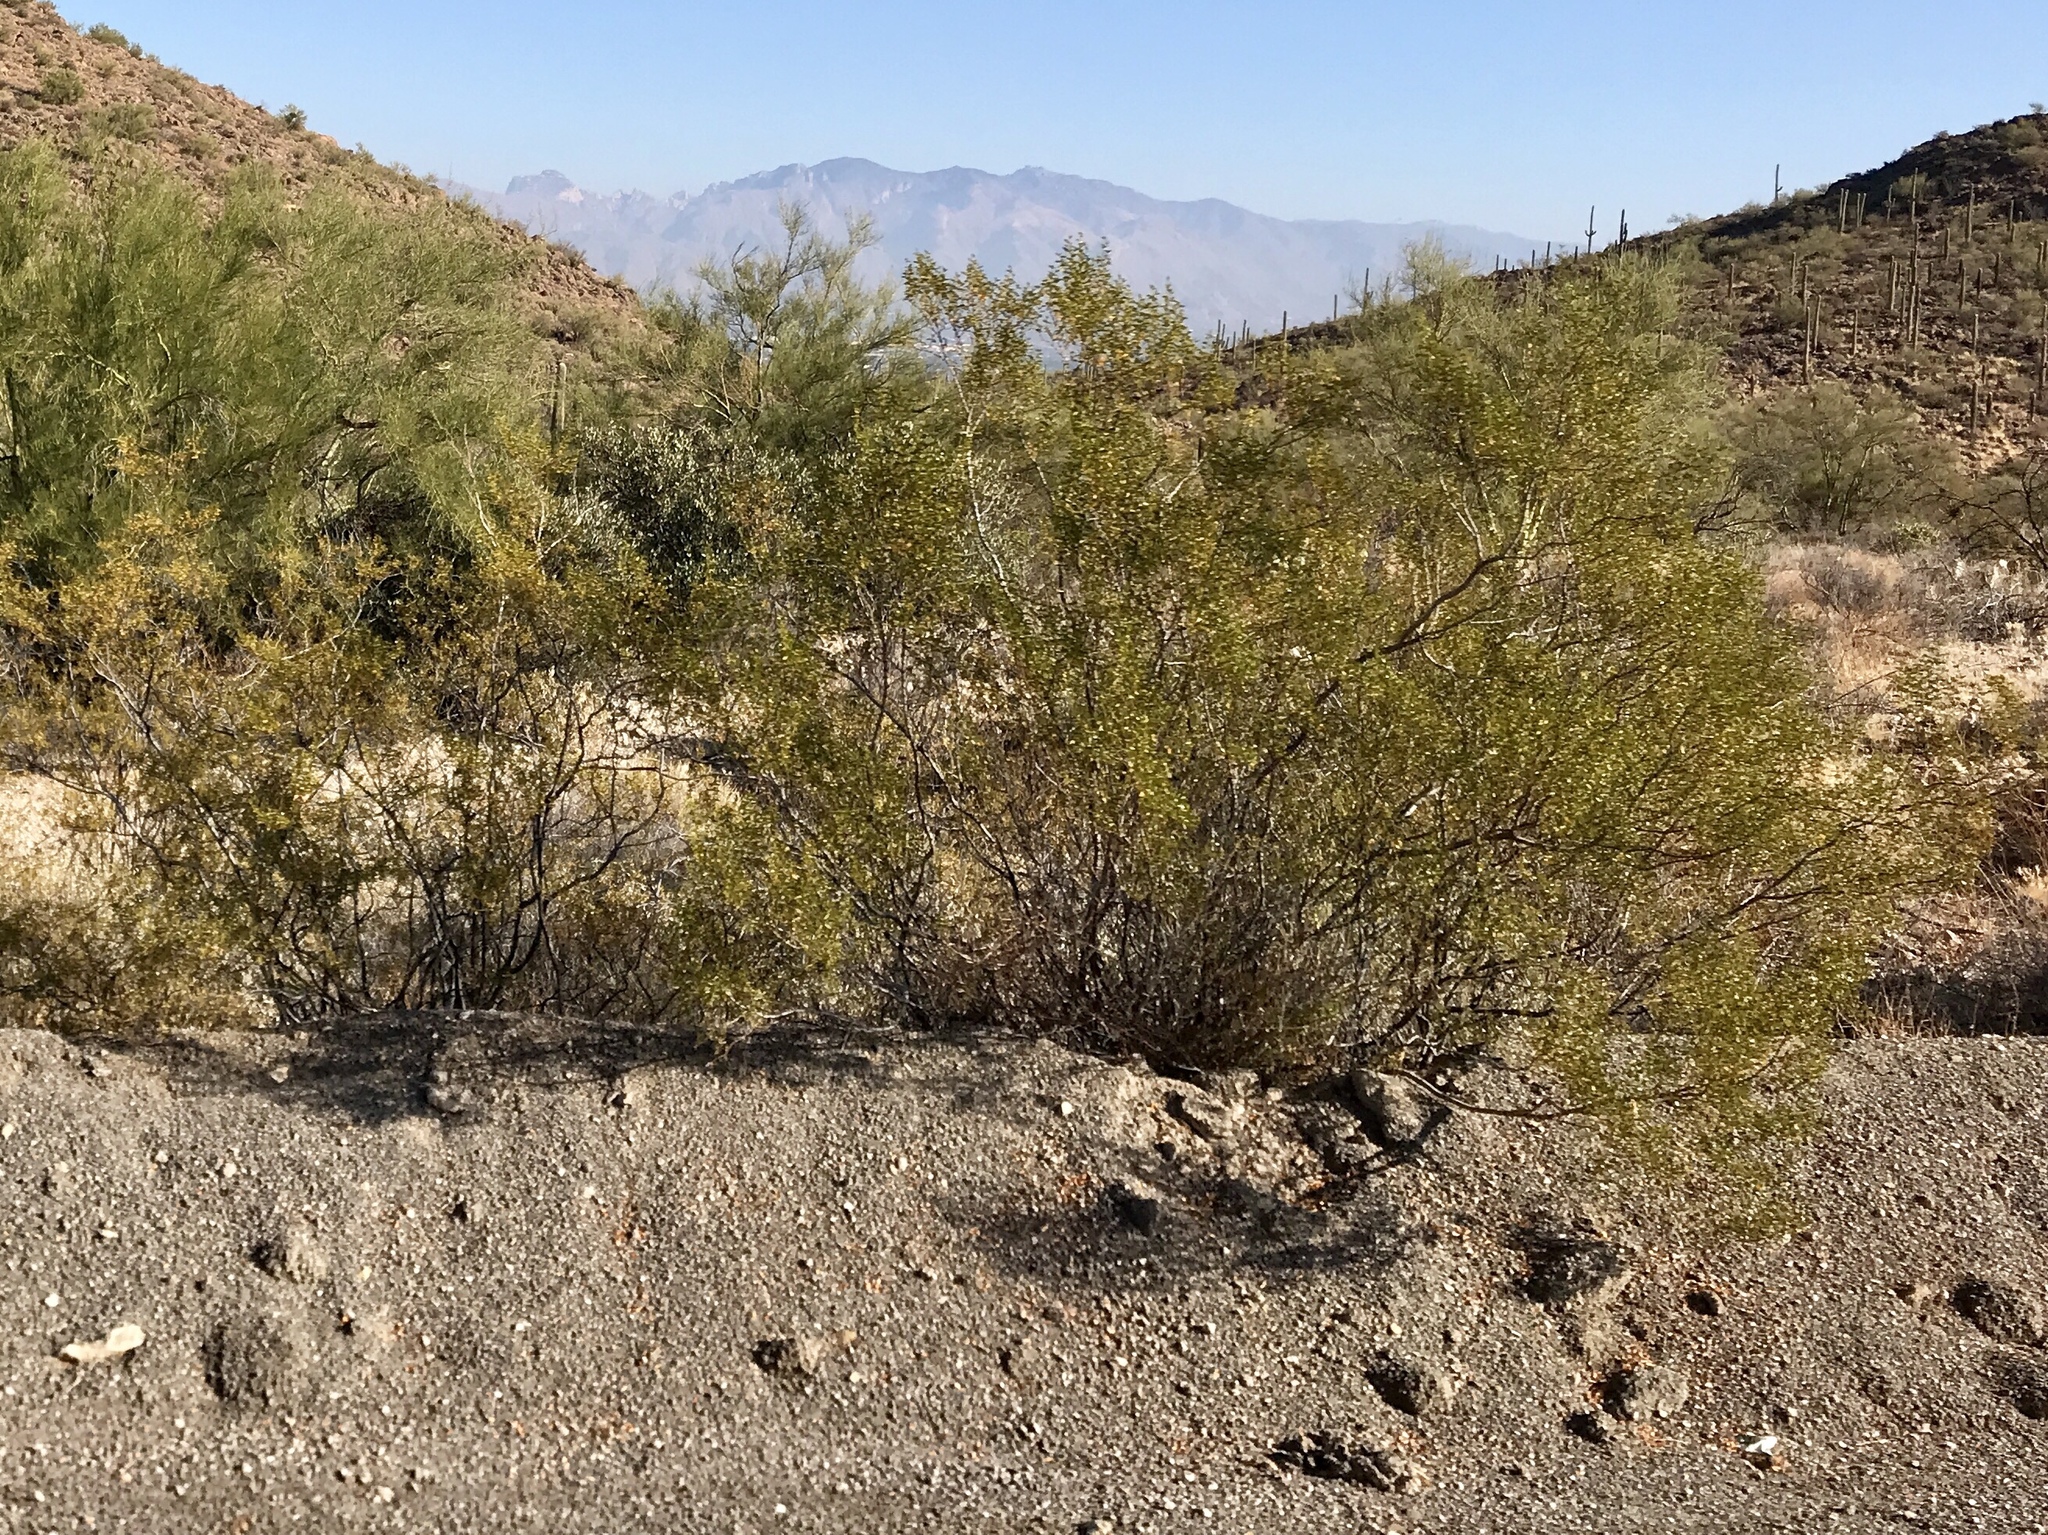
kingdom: Plantae
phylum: Tracheophyta
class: Magnoliopsida
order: Zygophyllales
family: Zygophyllaceae
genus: Larrea
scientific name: Larrea tridentata
